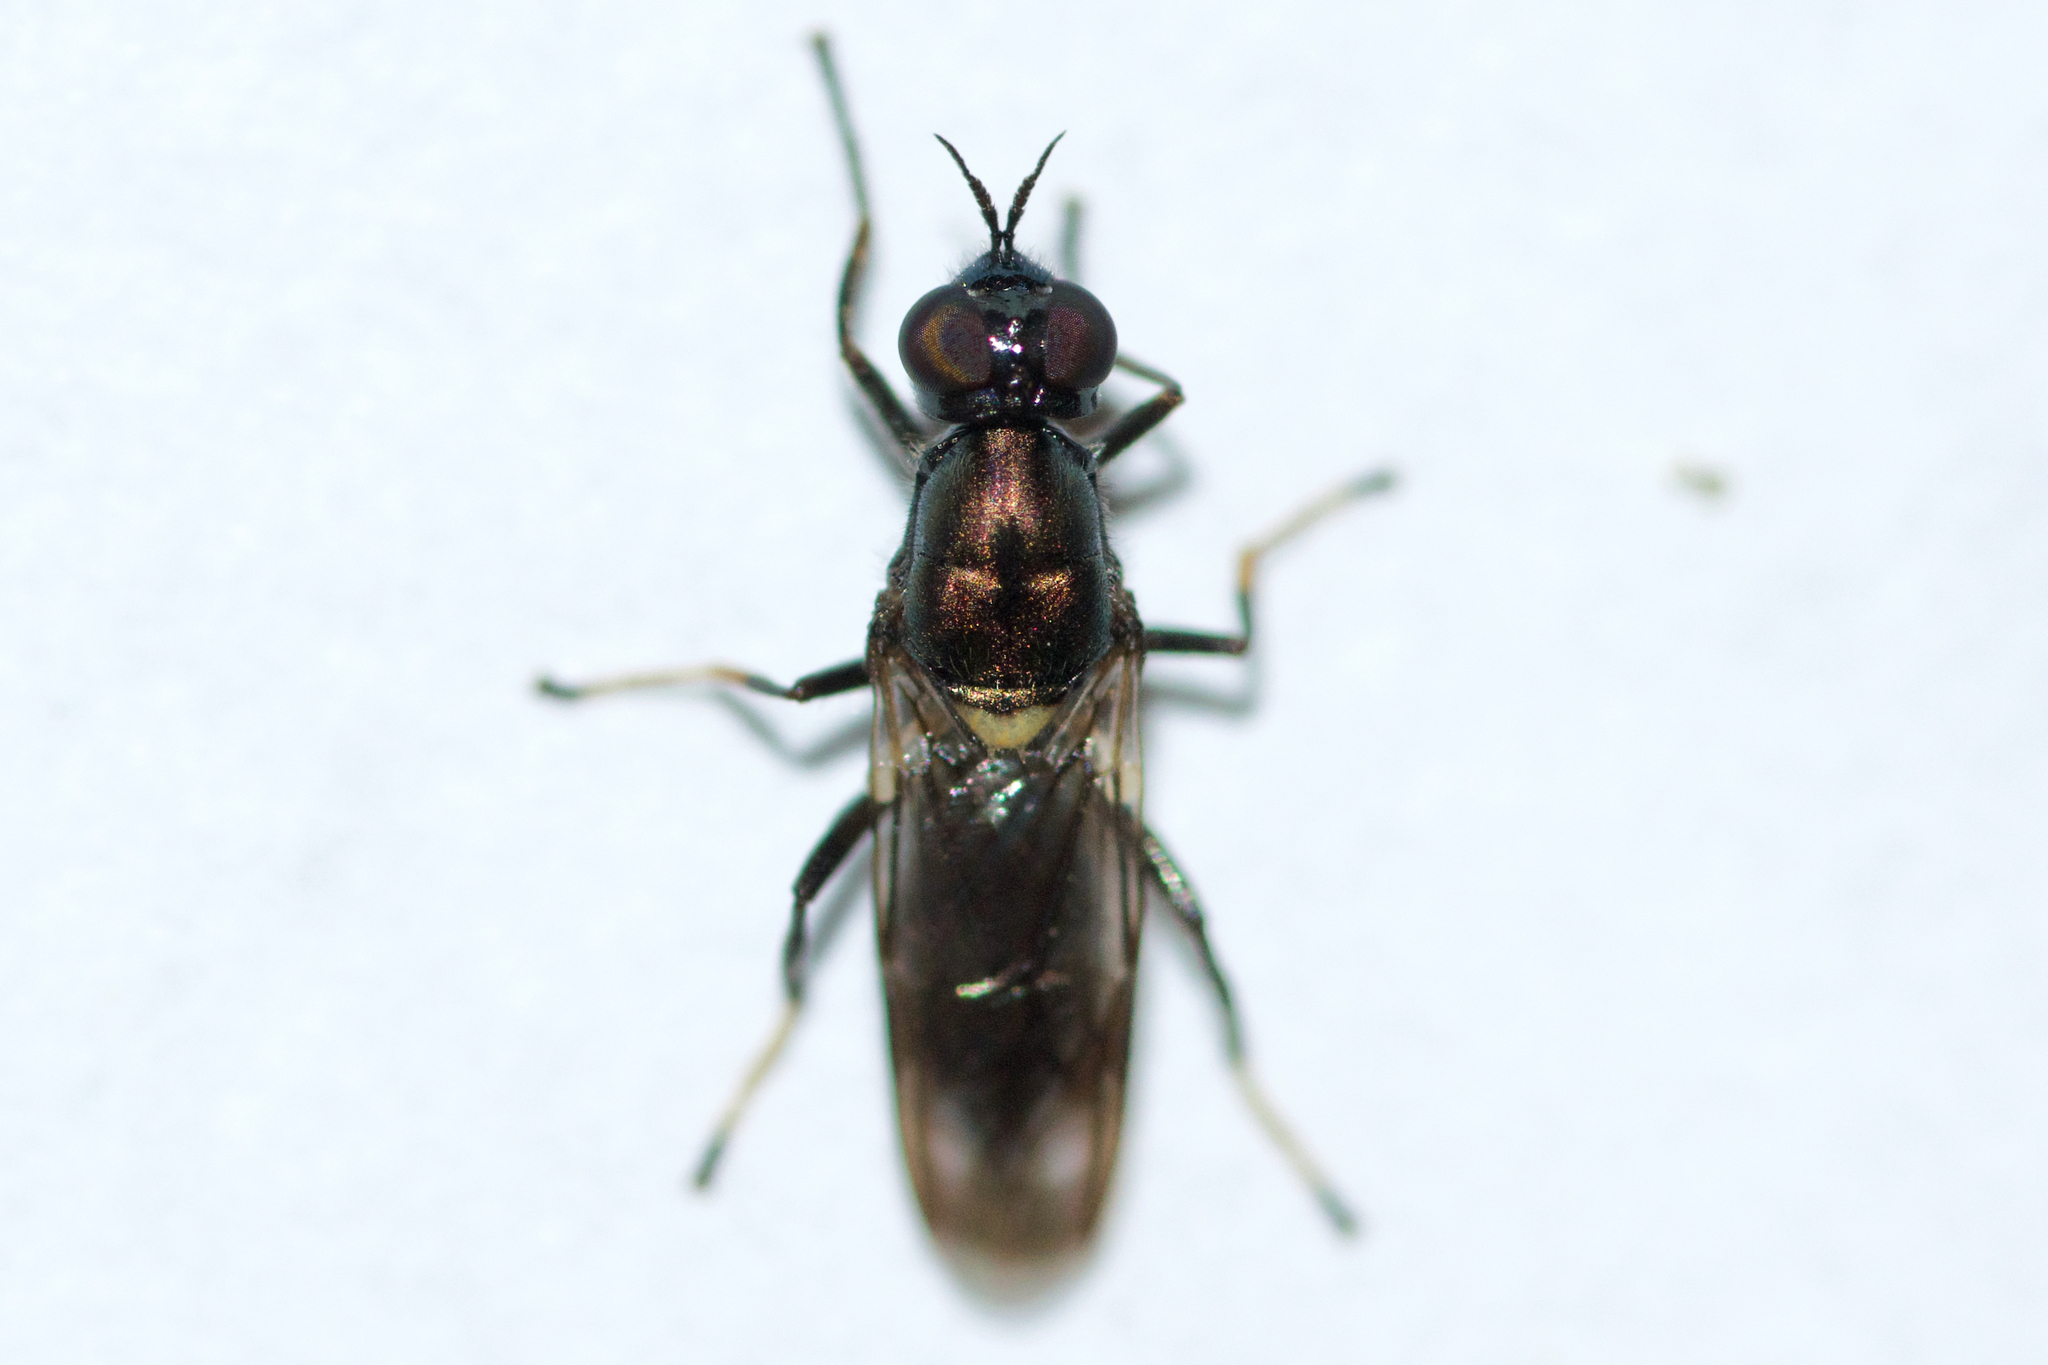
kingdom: Animalia
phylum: Arthropoda
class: Insecta
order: Diptera
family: Stratiomyidae
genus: Myxosargus
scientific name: Myxosargus nigricormis
